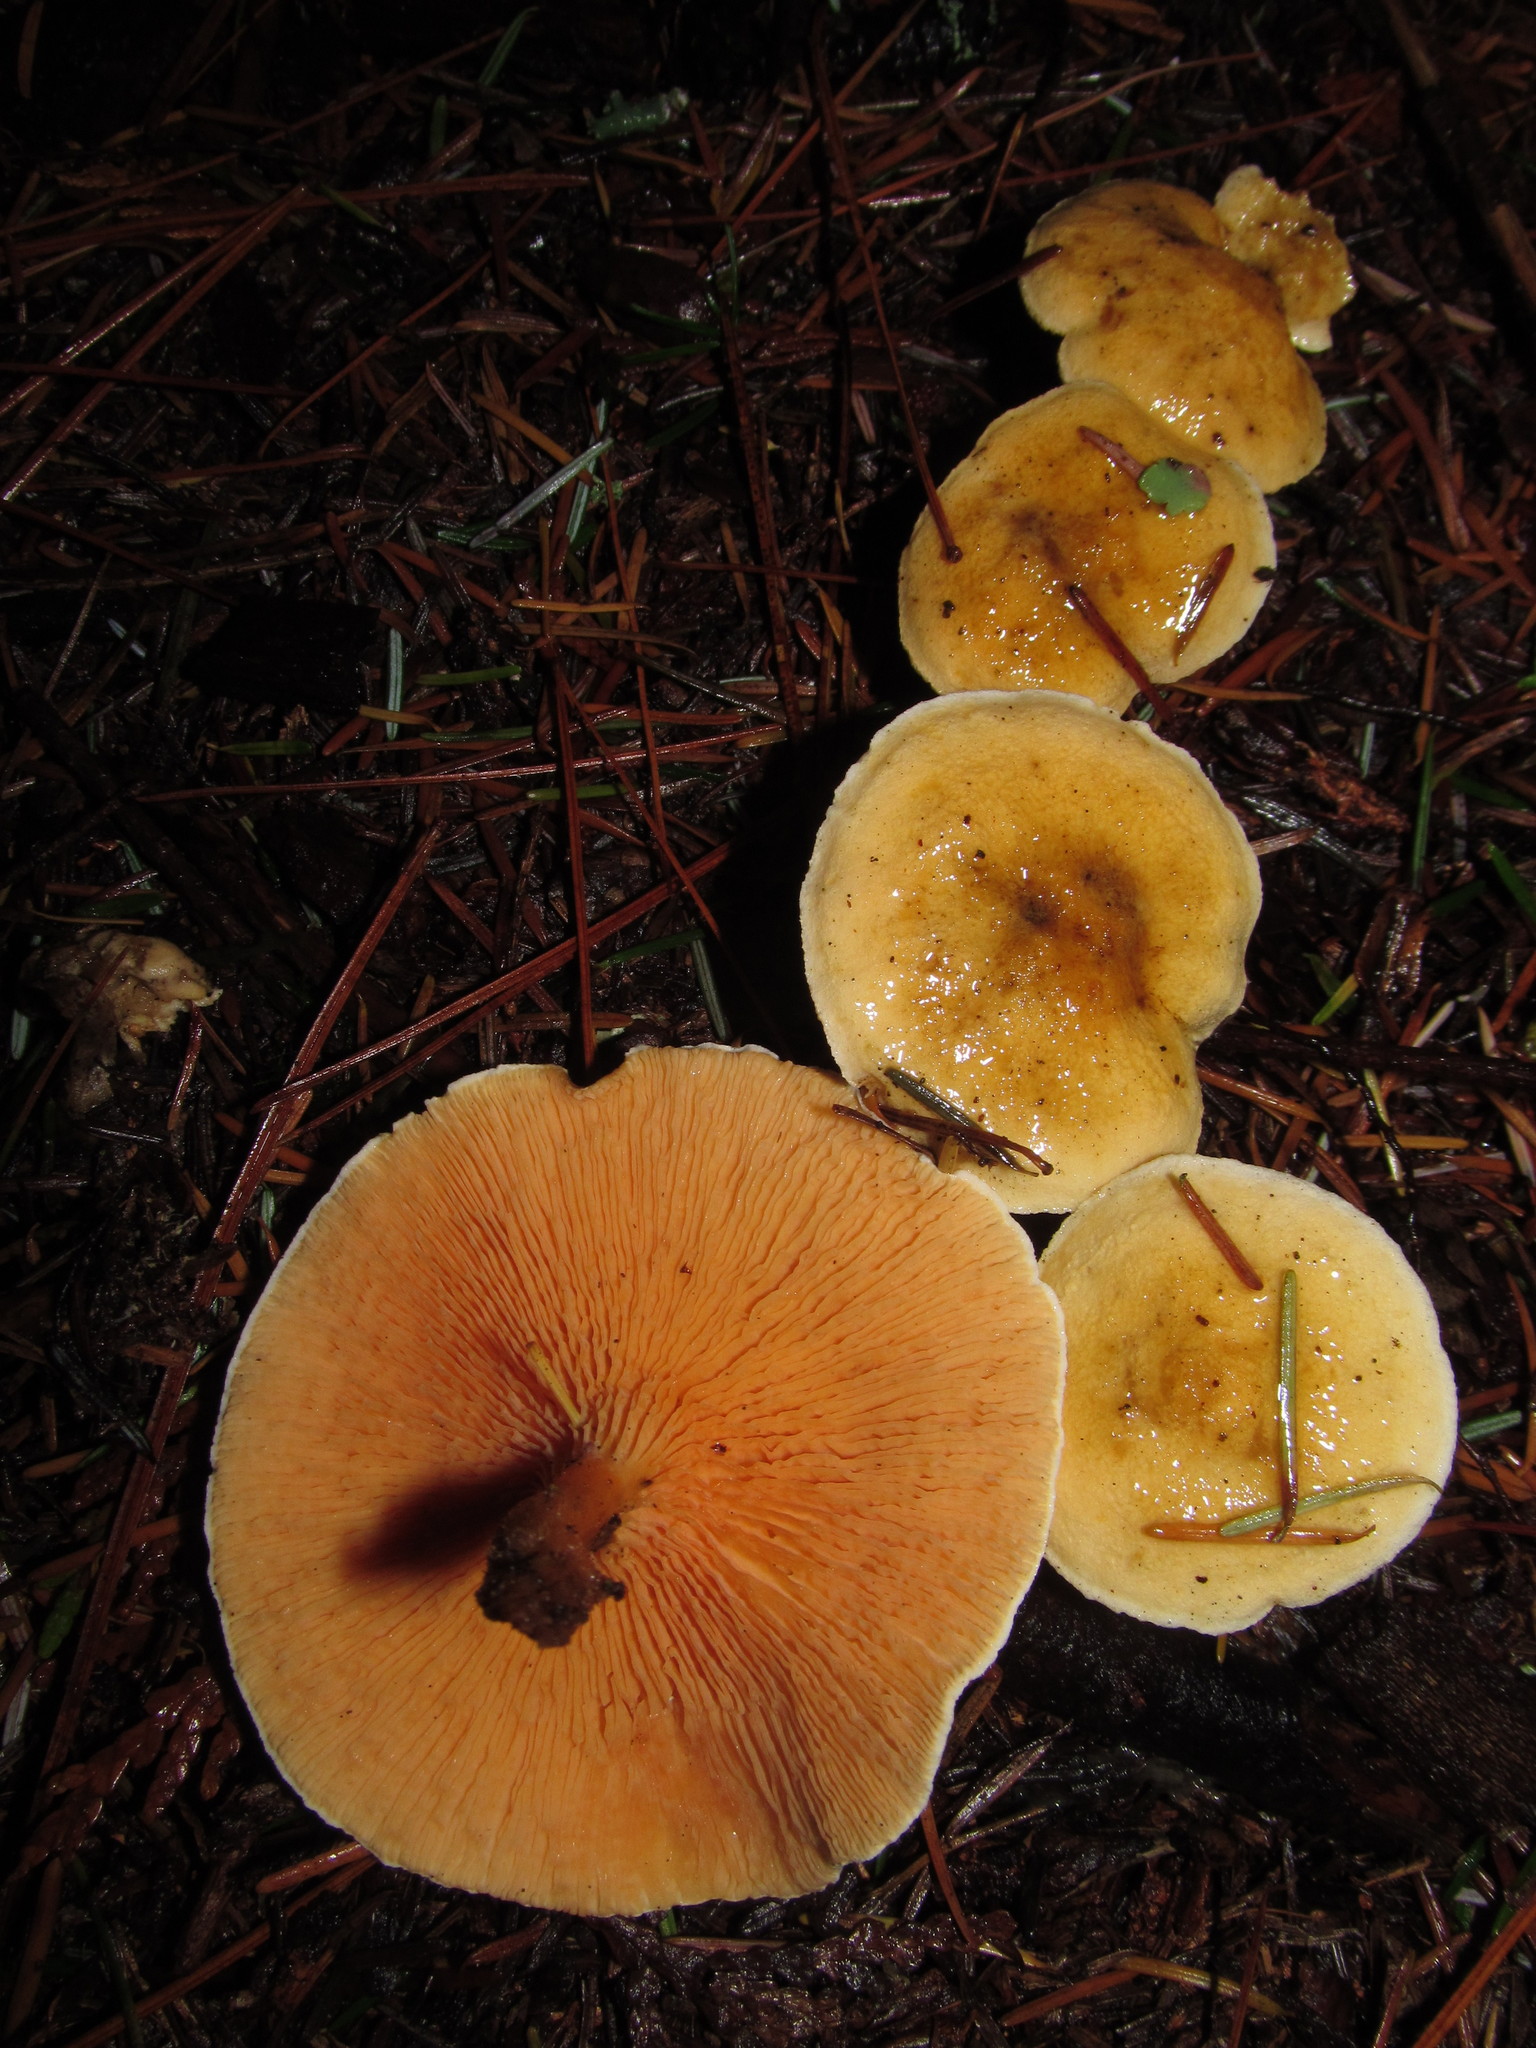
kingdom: Fungi
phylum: Basidiomycota
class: Agaricomycetes
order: Boletales
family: Hygrophoropsidaceae
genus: Hygrophoropsis
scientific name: Hygrophoropsis aurantiaca
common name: False chanterelle
